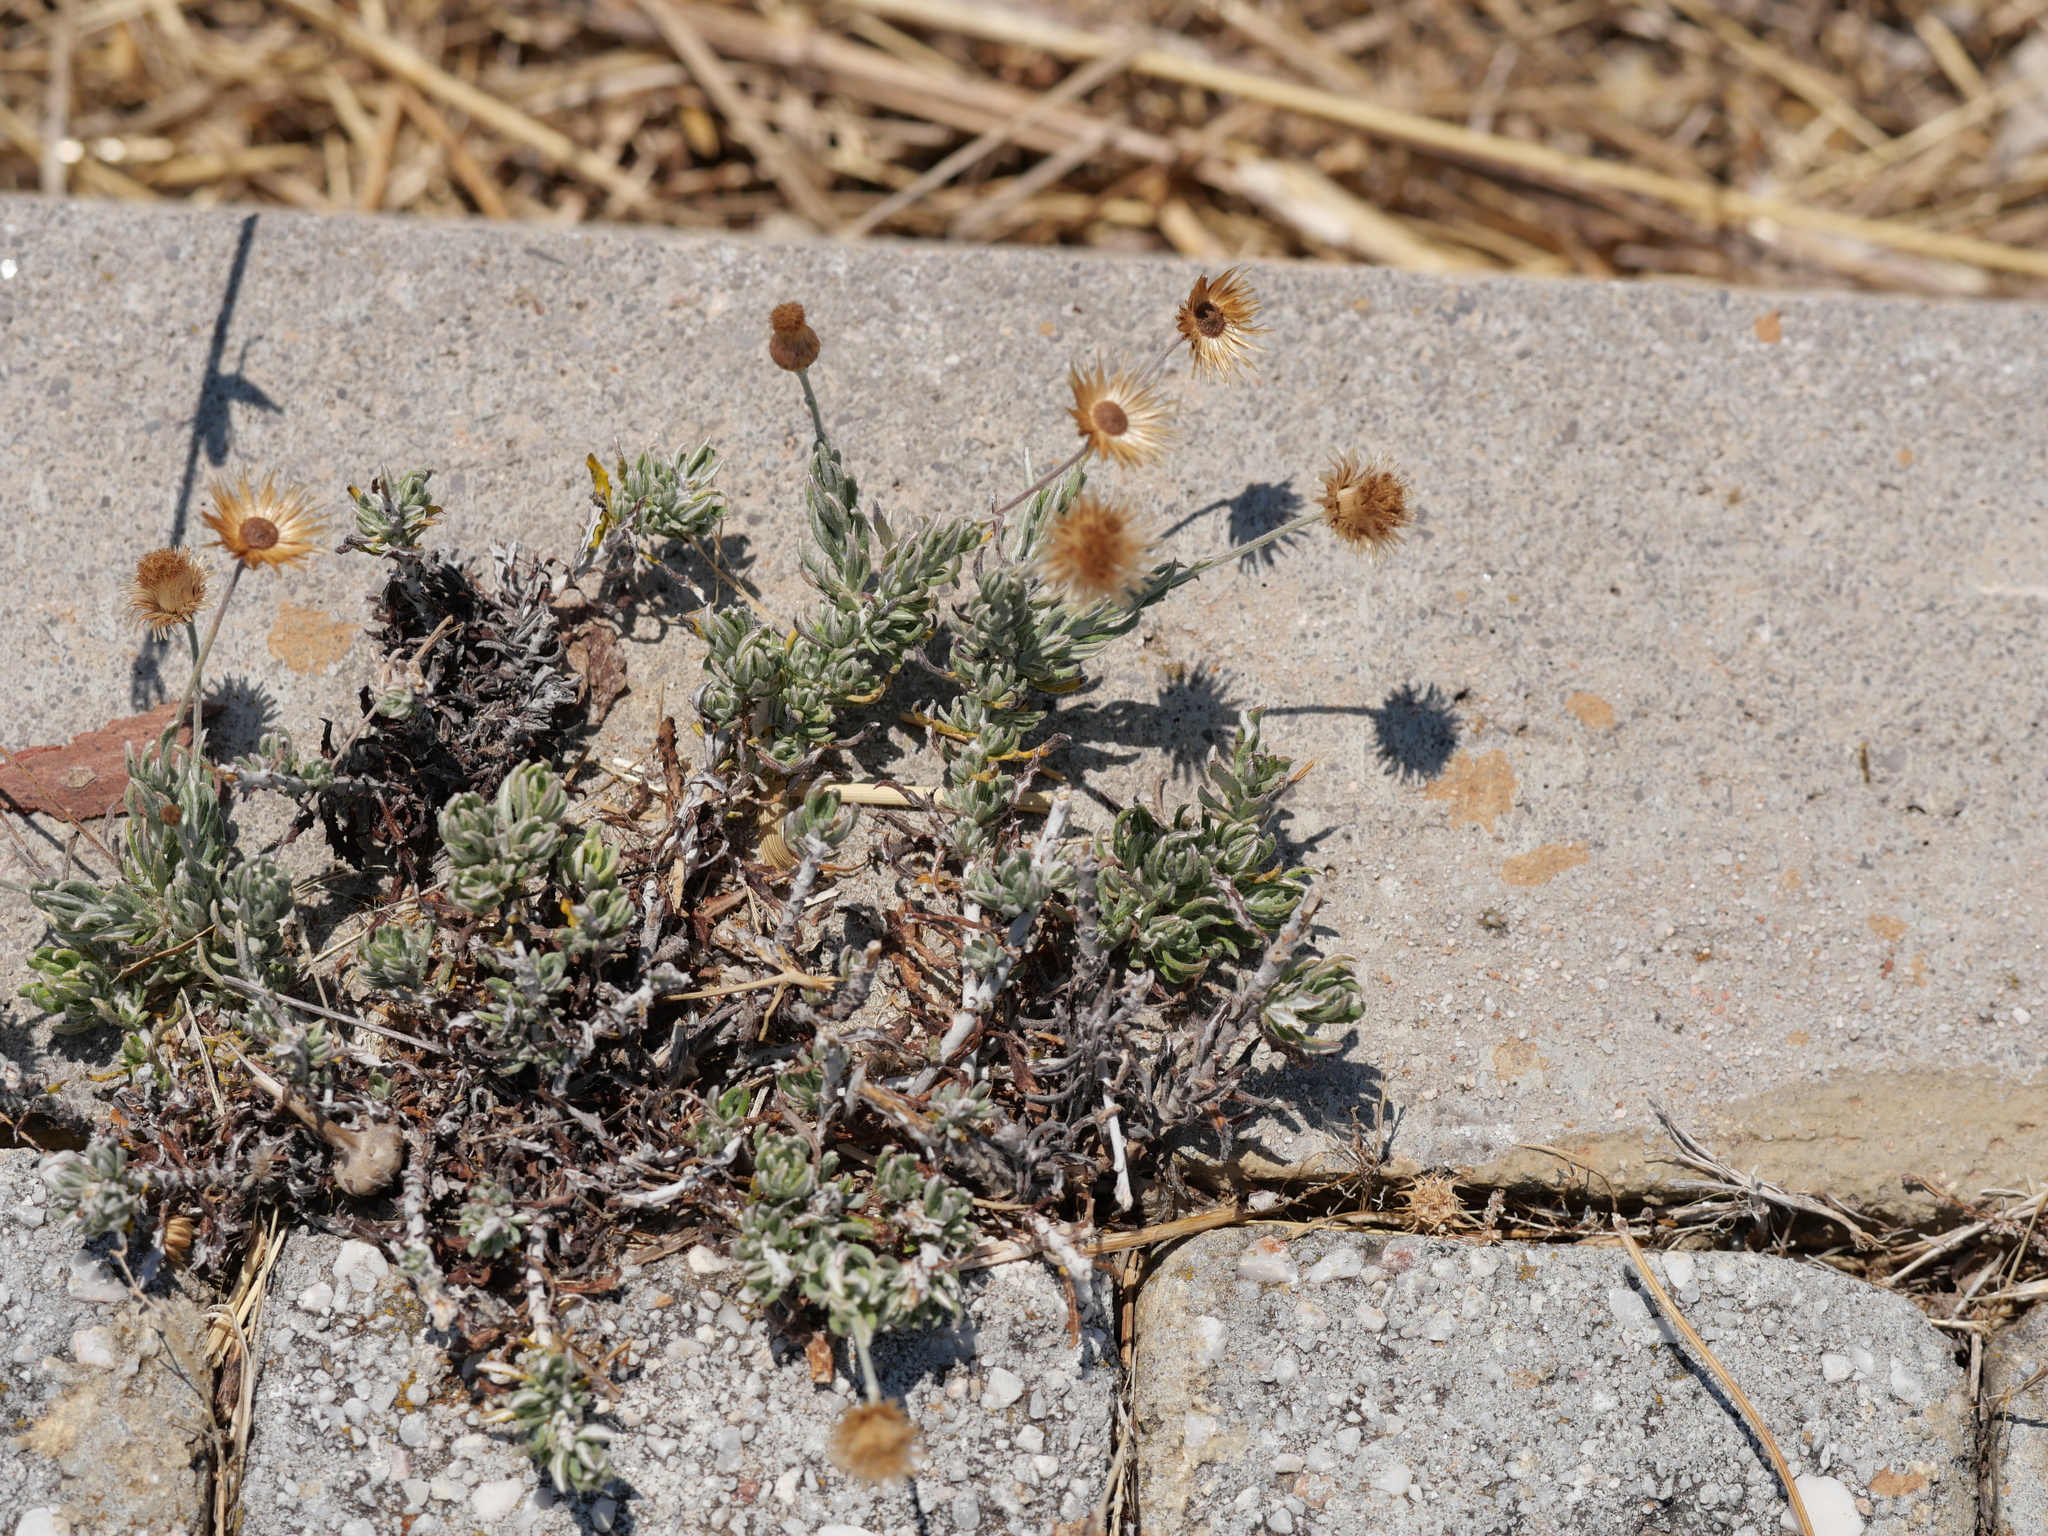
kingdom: Plantae
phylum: Tracheophyta
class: Magnoliopsida
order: Asterales
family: Asteraceae
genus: Phagnalon
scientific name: Phagnalon graecum
